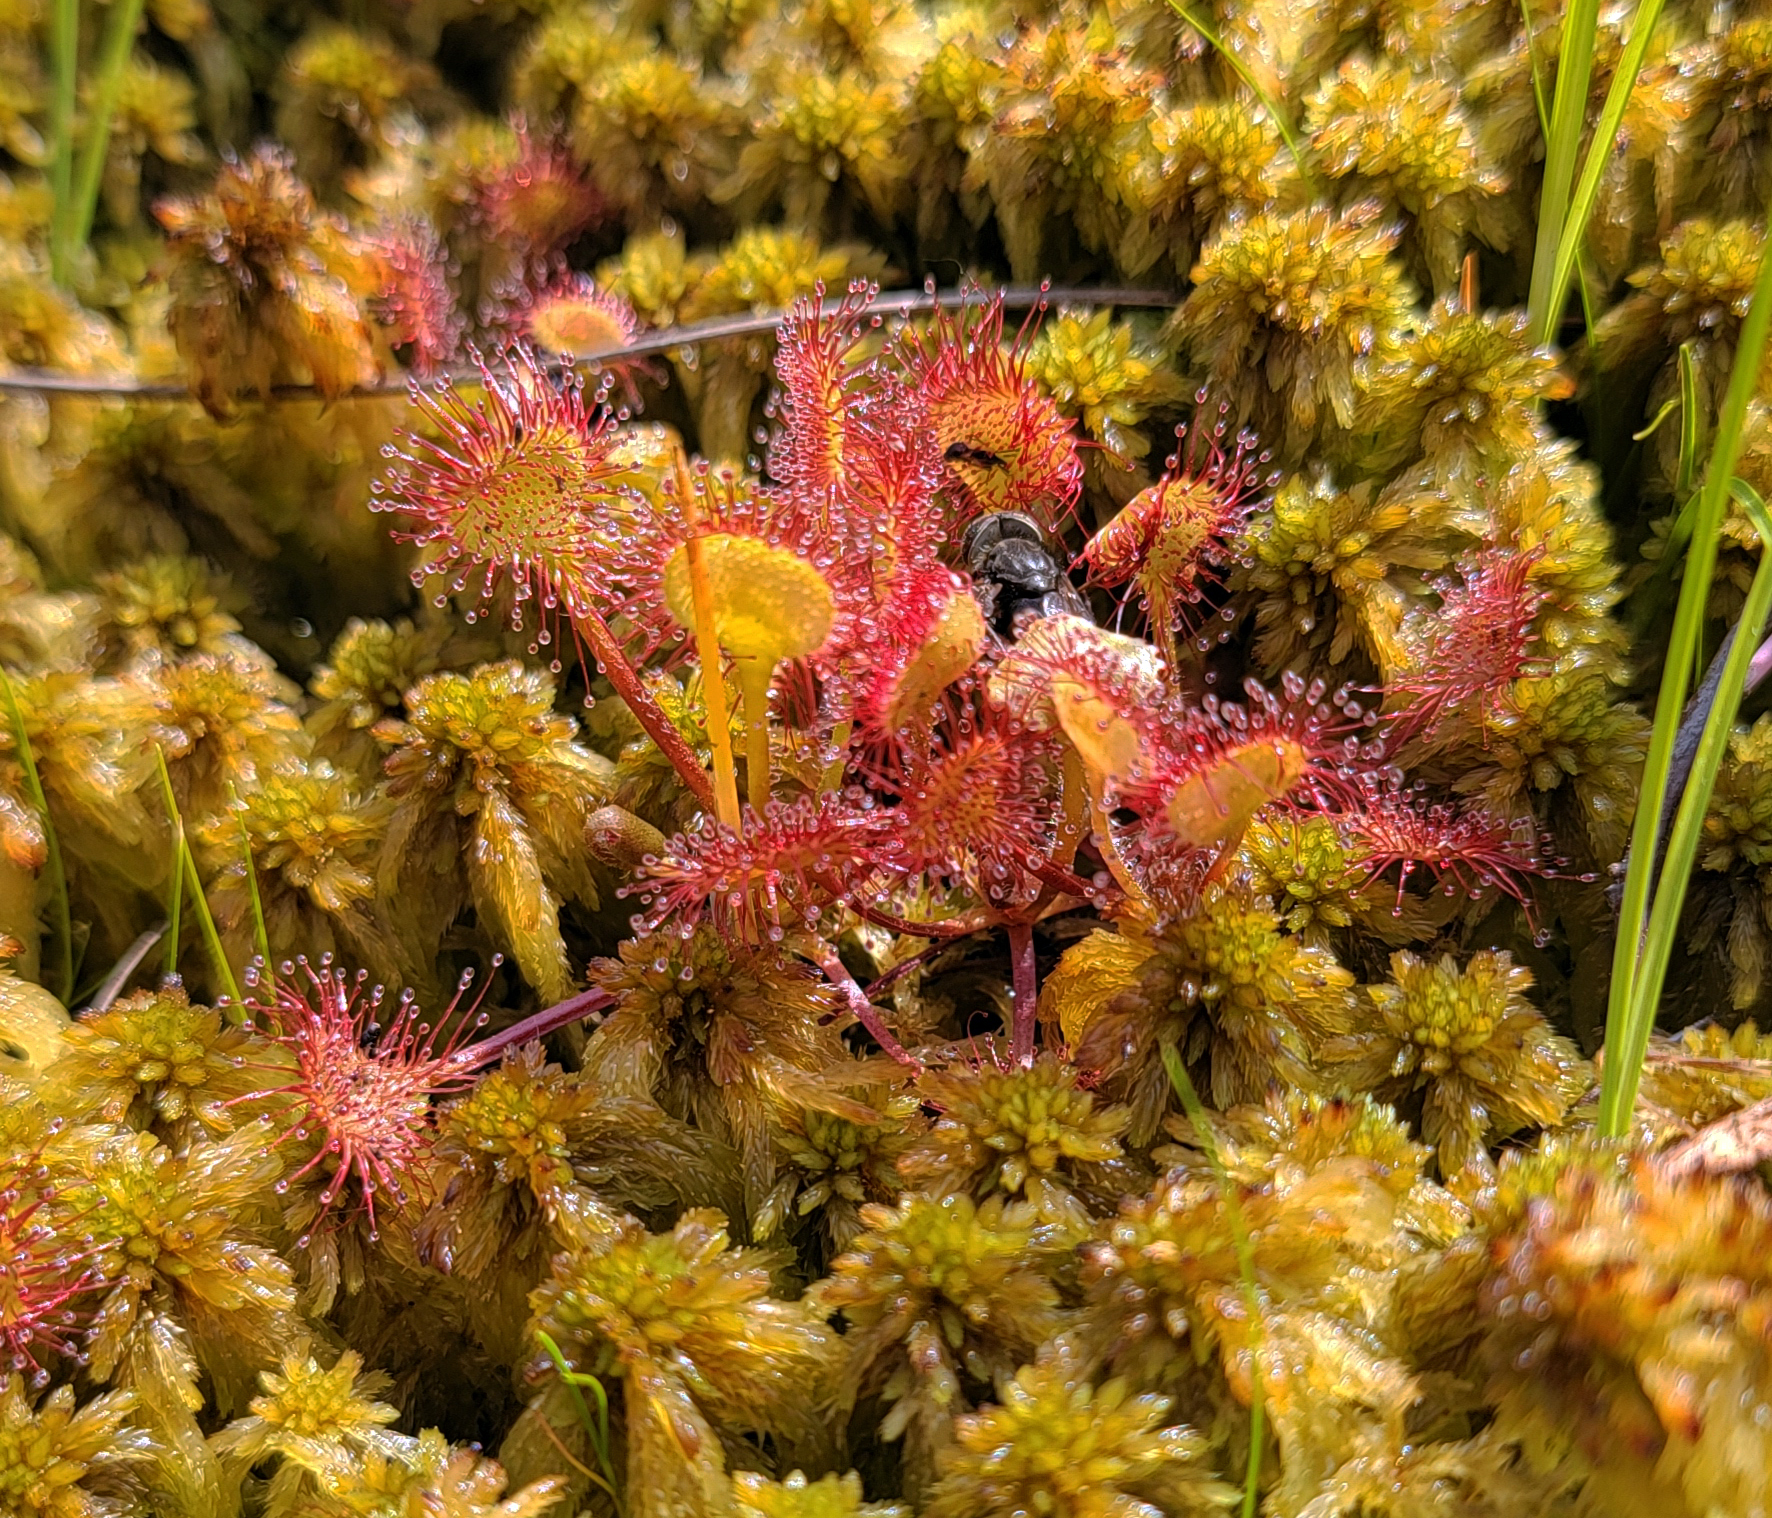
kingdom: Plantae
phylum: Tracheophyta
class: Magnoliopsida
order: Caryophyllales
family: Droseraceae
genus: Drosera
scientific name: Drosera rotundifolia
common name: Round-leaved sundew
